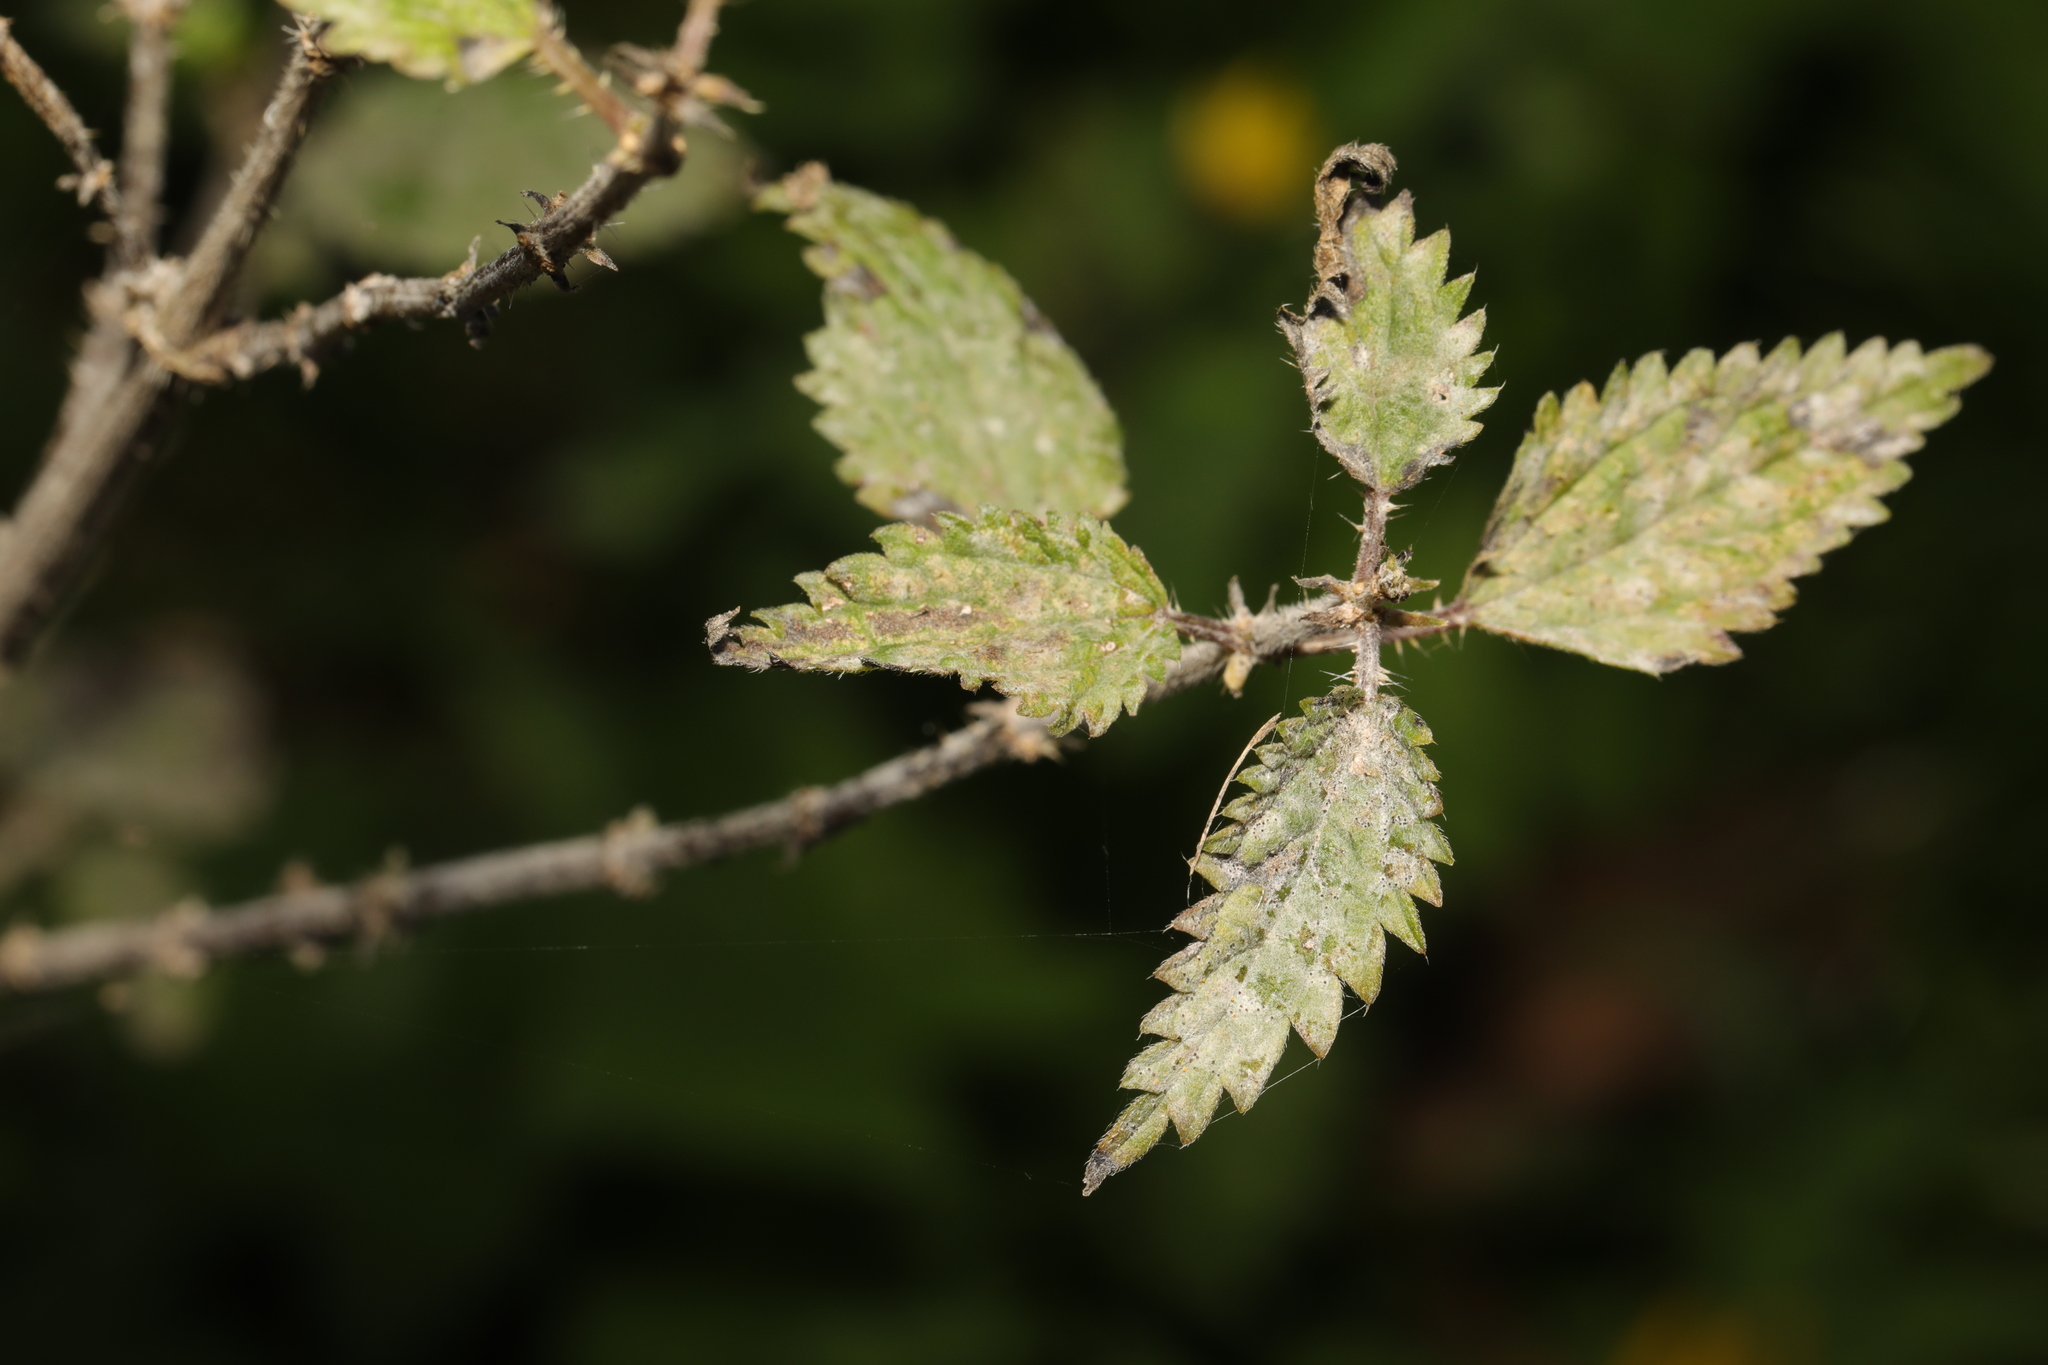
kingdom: Plantae
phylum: Tracheophyta
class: Magnoliopsida
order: Rosales
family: Urticaceae
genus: Urtica
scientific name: Urtica dioica
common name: Common nettle
